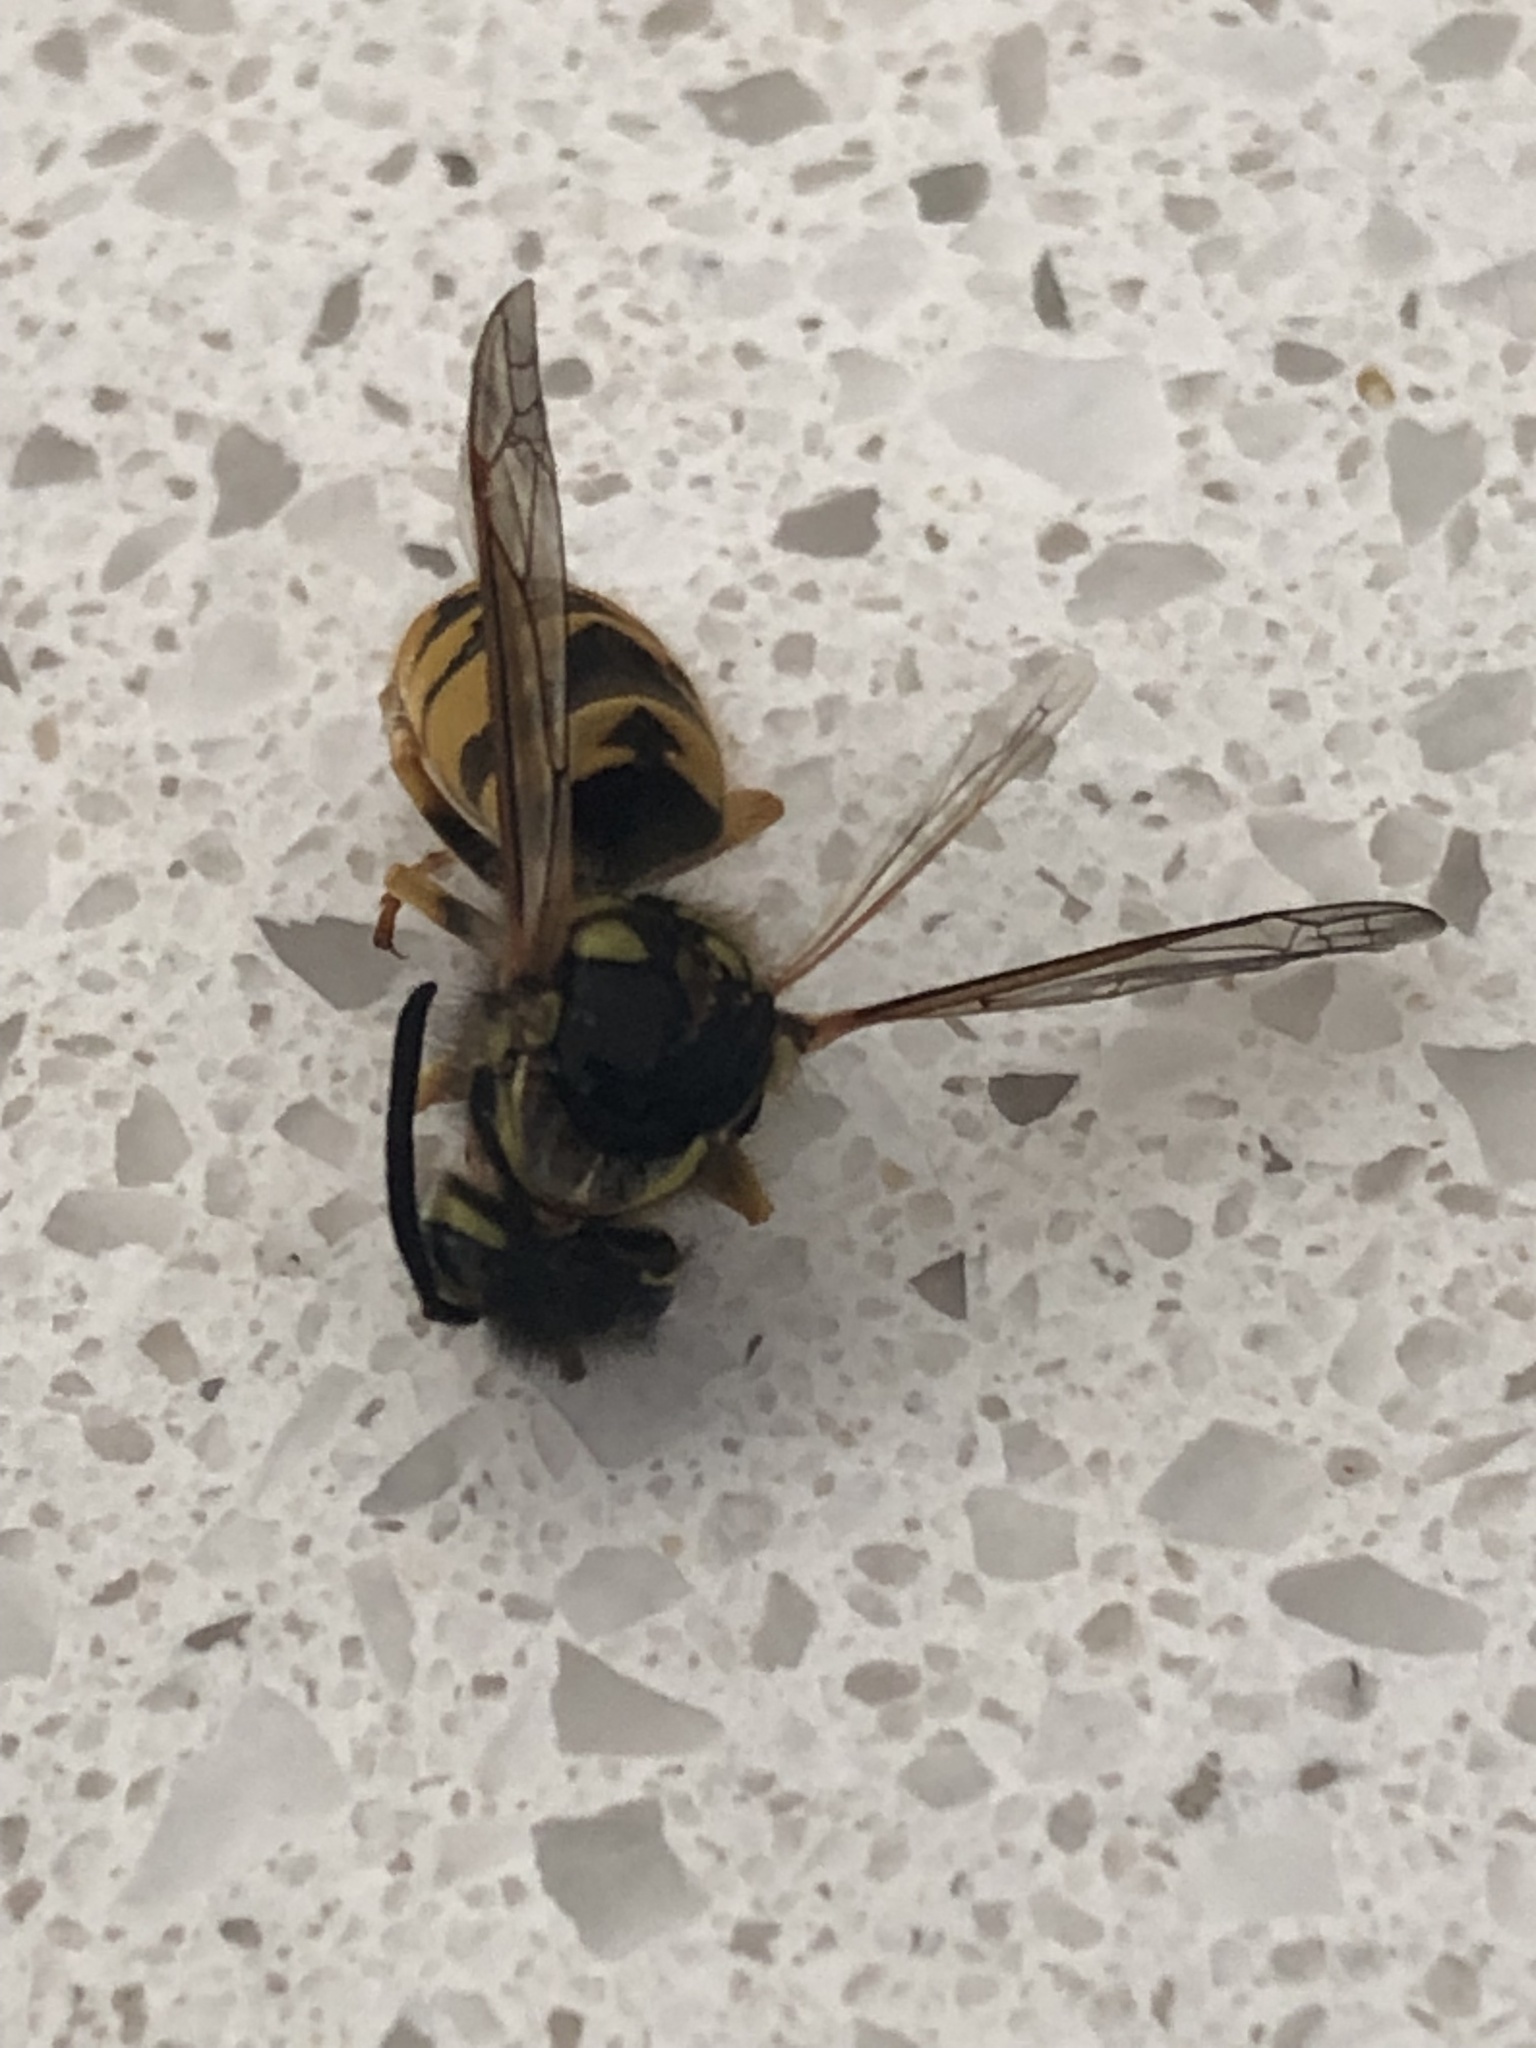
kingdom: Animalia
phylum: Arthropoda
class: Insecta
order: Hymenoptera
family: Vespidae
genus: Vespula
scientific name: Vespula germanica
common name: German wasp
